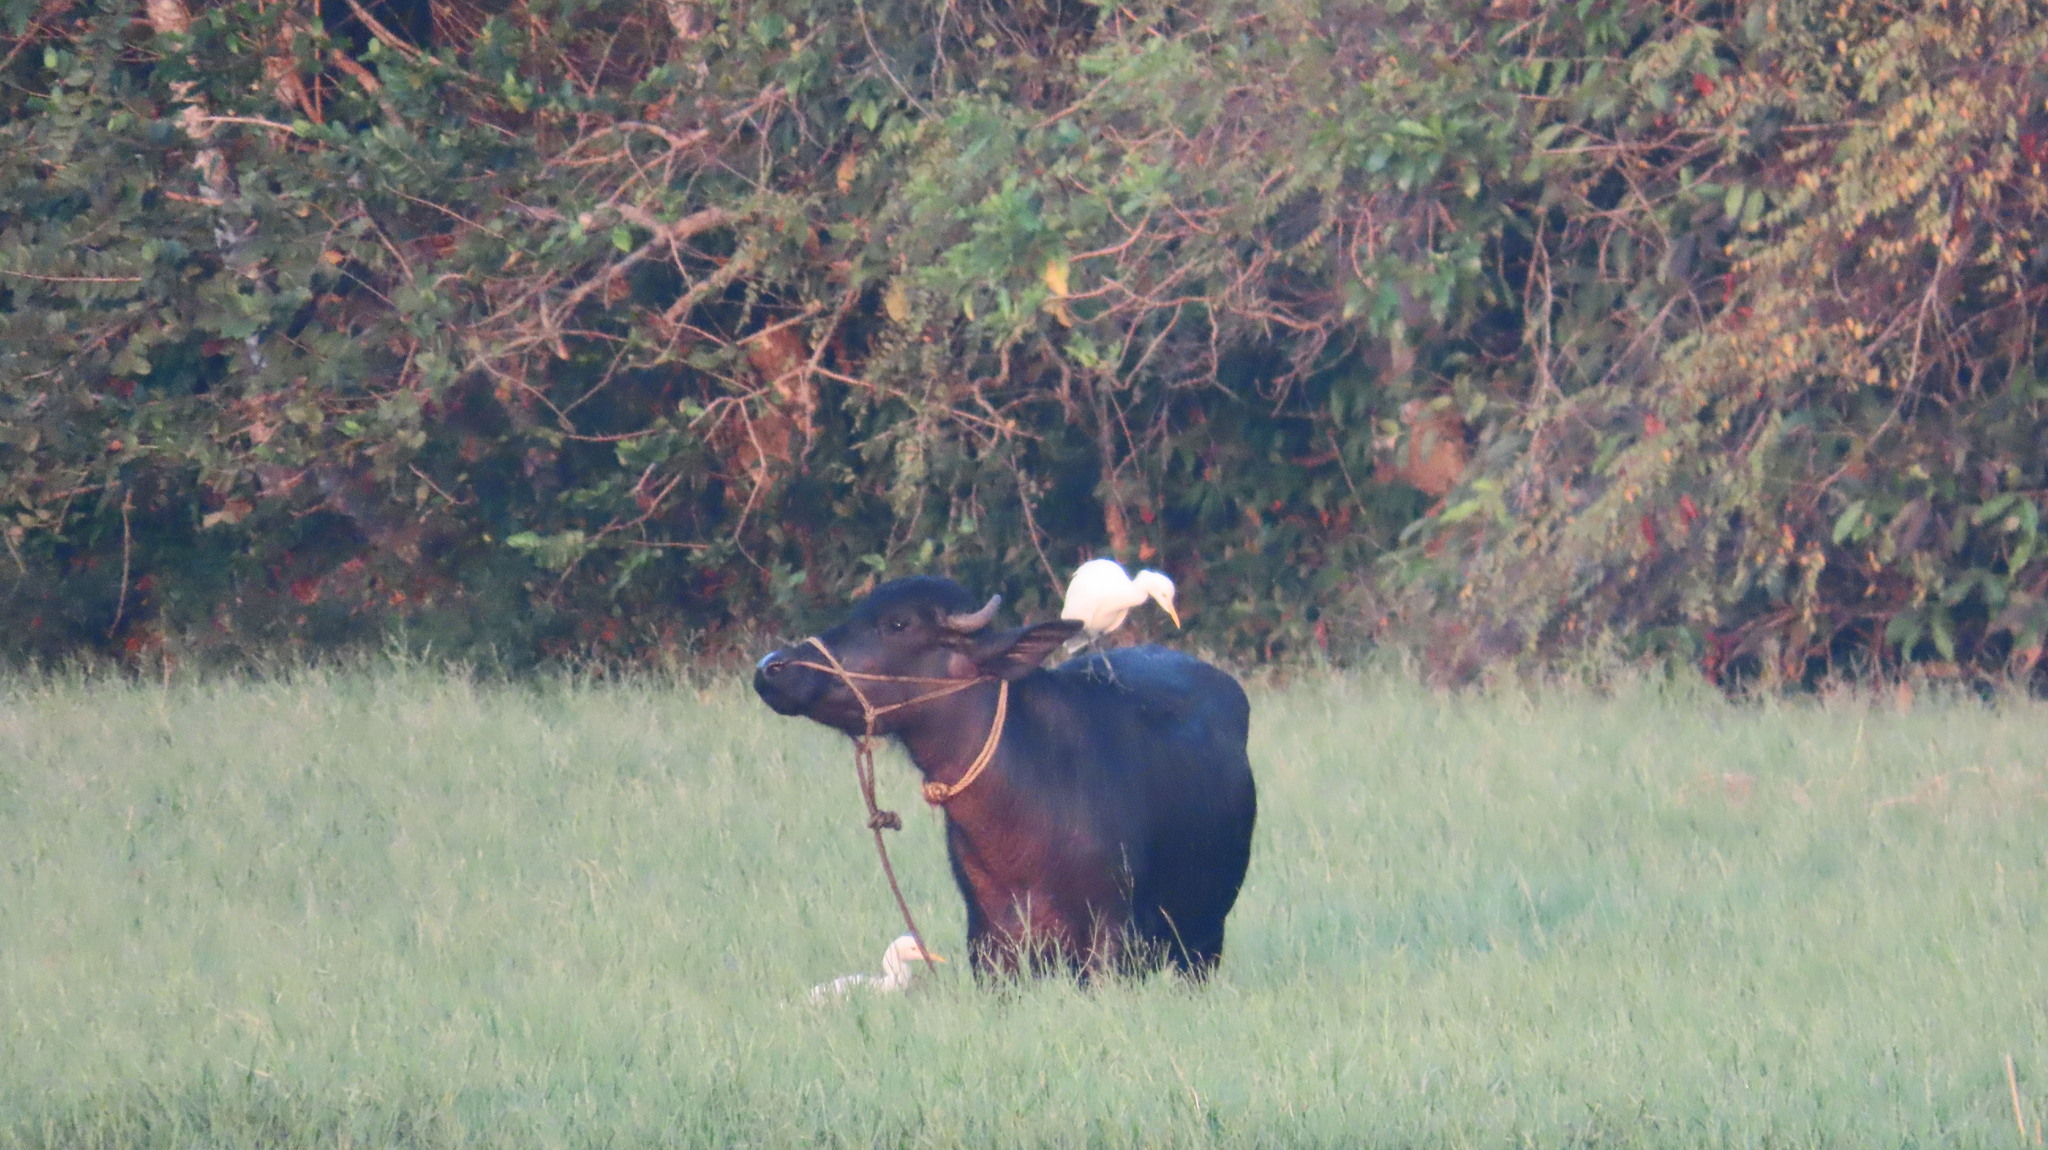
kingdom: Animalia
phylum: Chordata
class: Aves
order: Pelecaniformes
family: Ardeidae
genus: Bubulcus
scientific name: Bubulcus coromandus
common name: Eastern cattle egret
